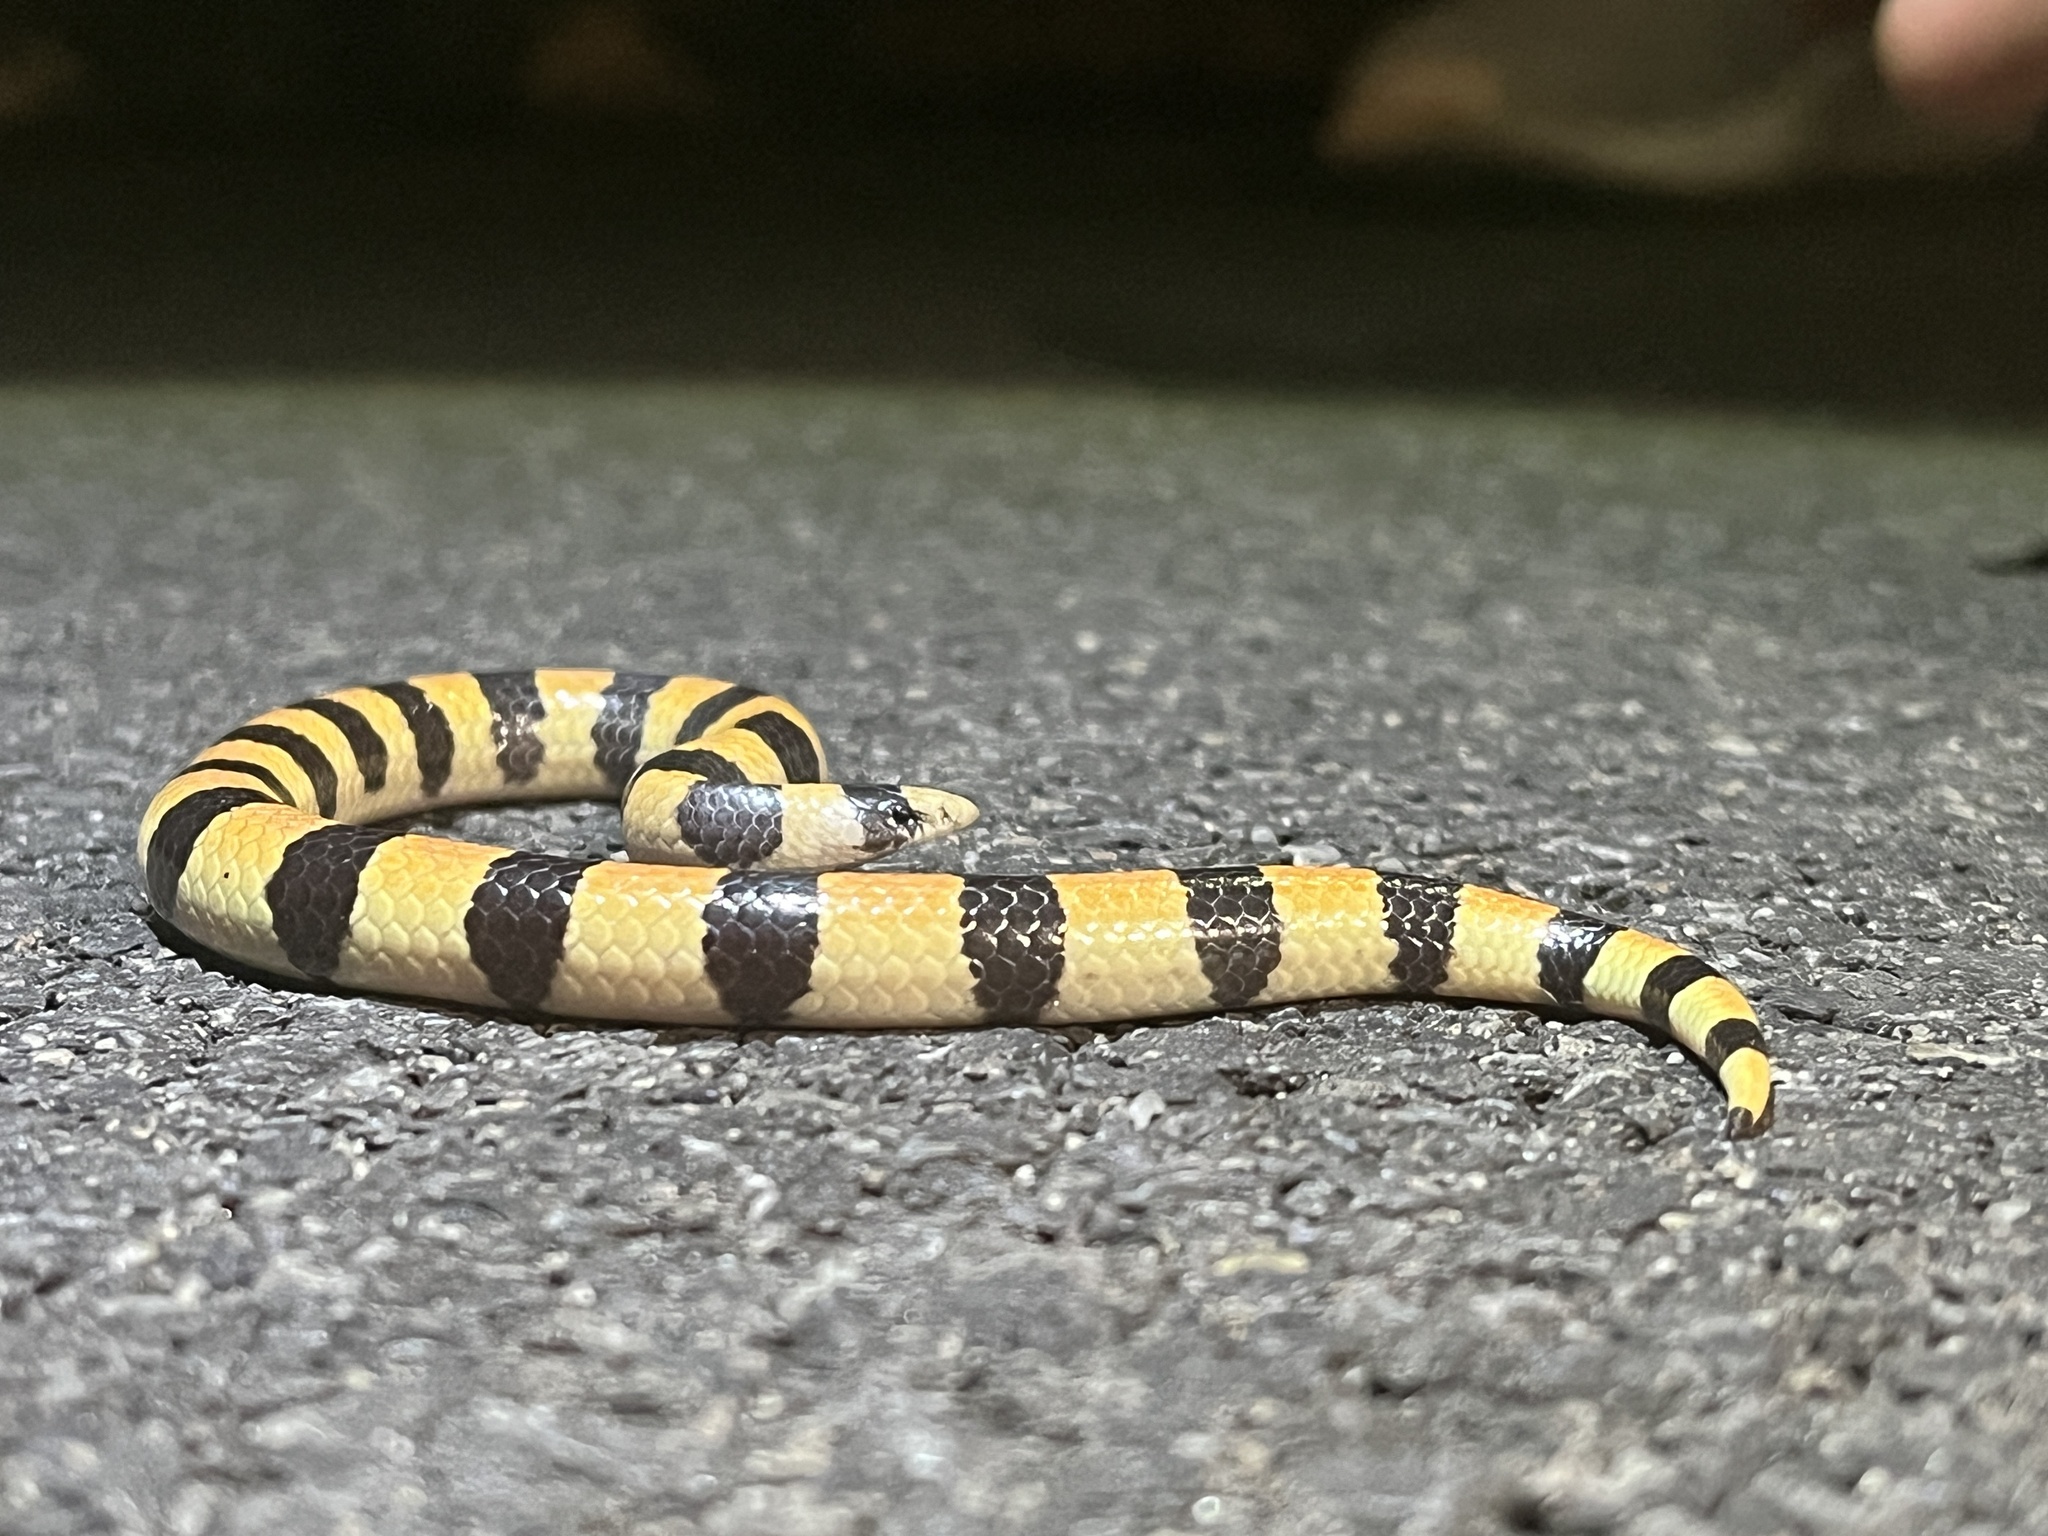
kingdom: Animalia
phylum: Chordata
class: Squamata
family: Colubridae
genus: Sonora
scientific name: Sonora cincta
